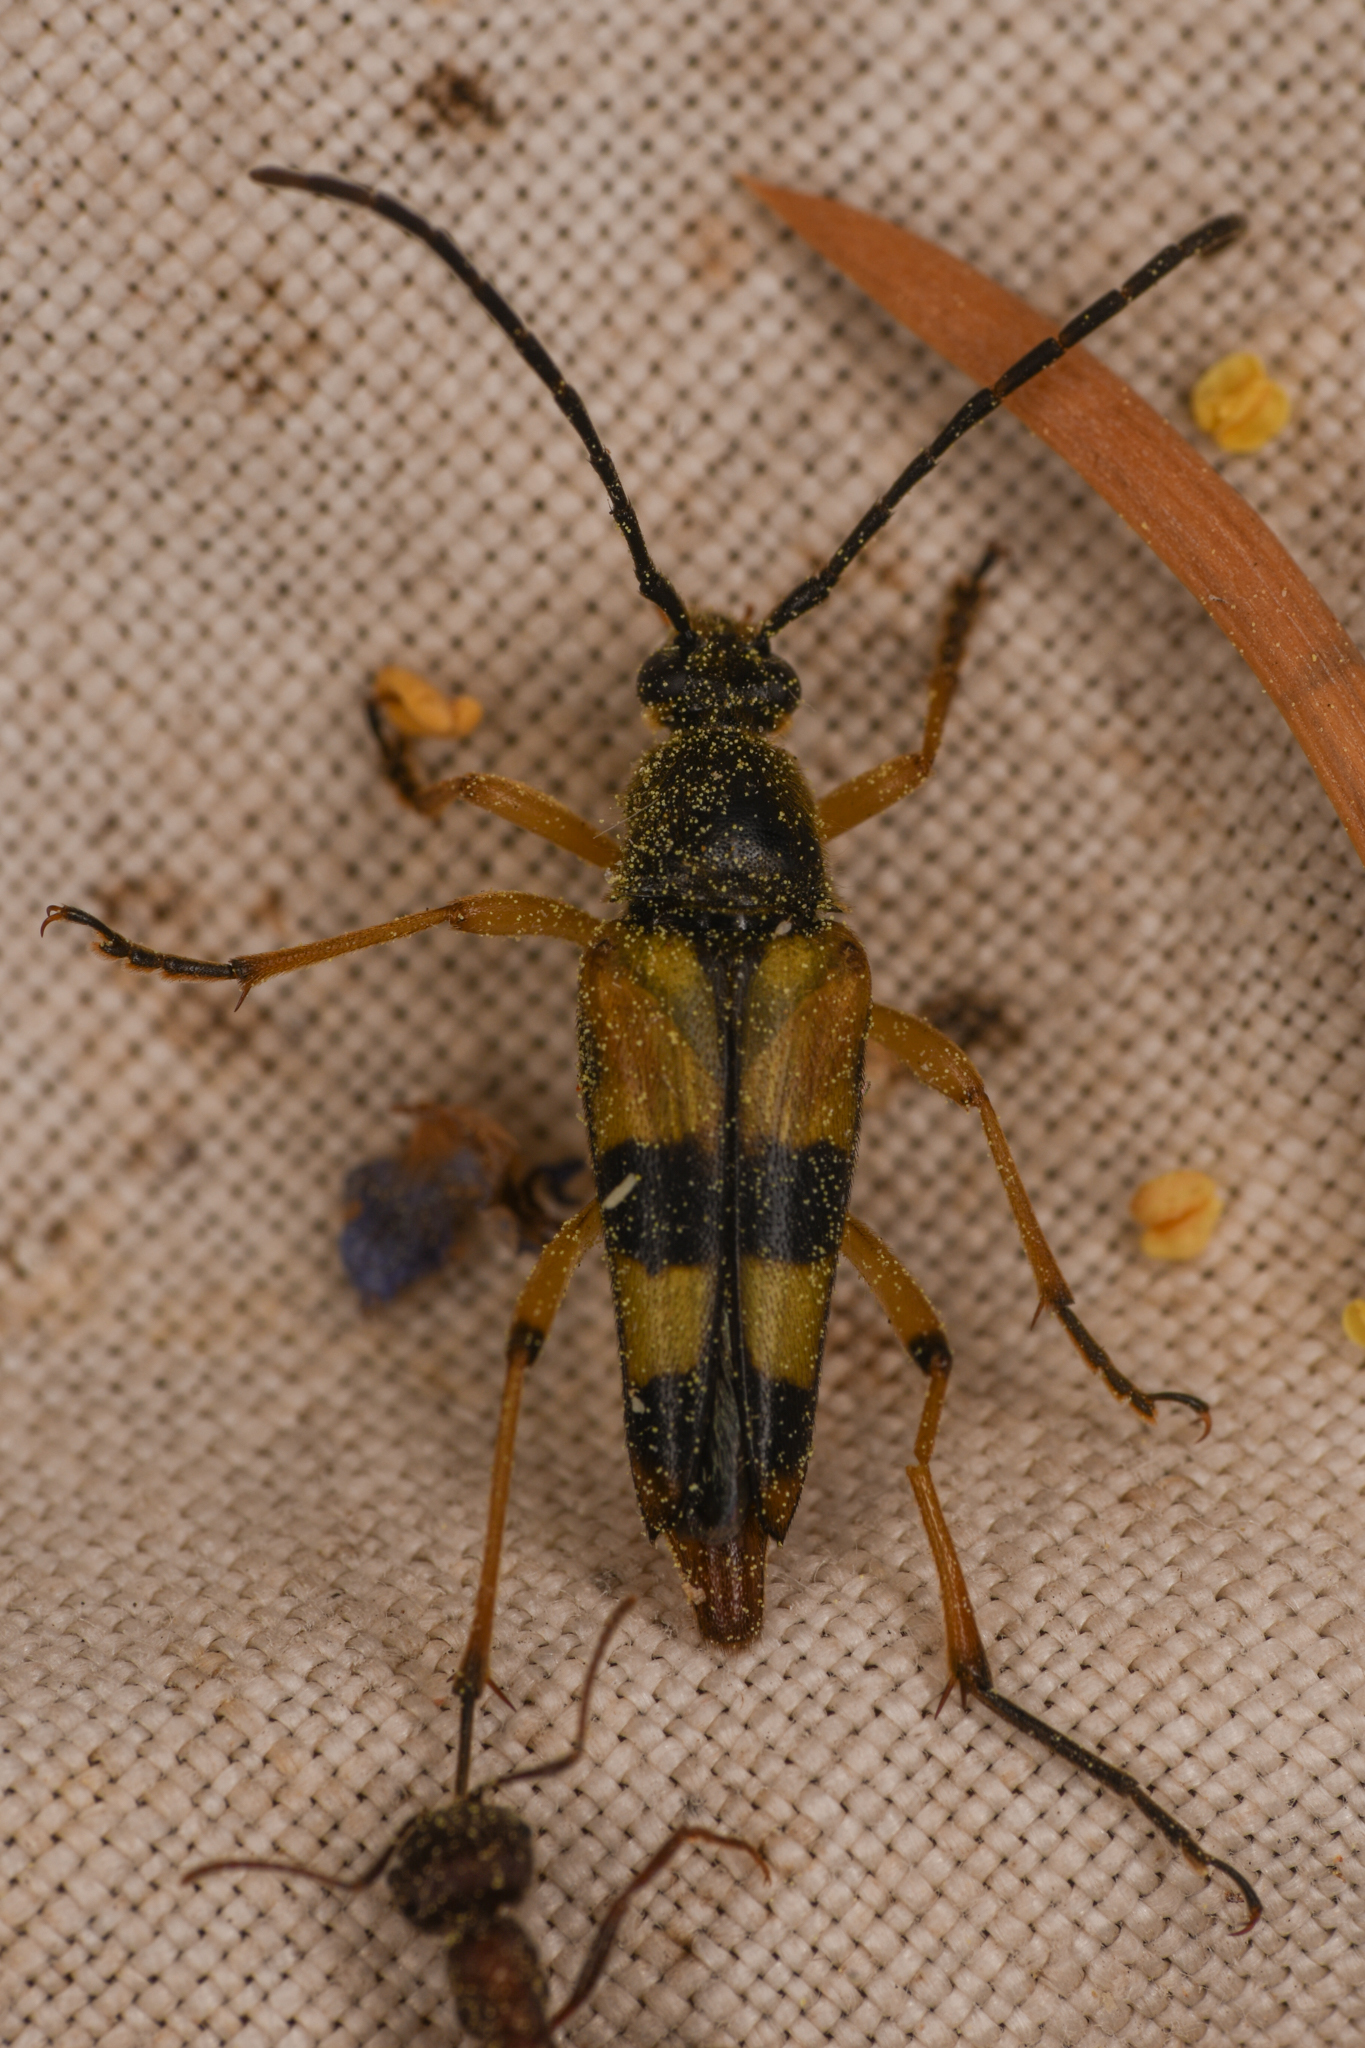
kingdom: Animalia
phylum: Arthropoda
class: Insecta
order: Coleoptera
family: Cerambycidae
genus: Leptura
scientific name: Leptura hovorei
